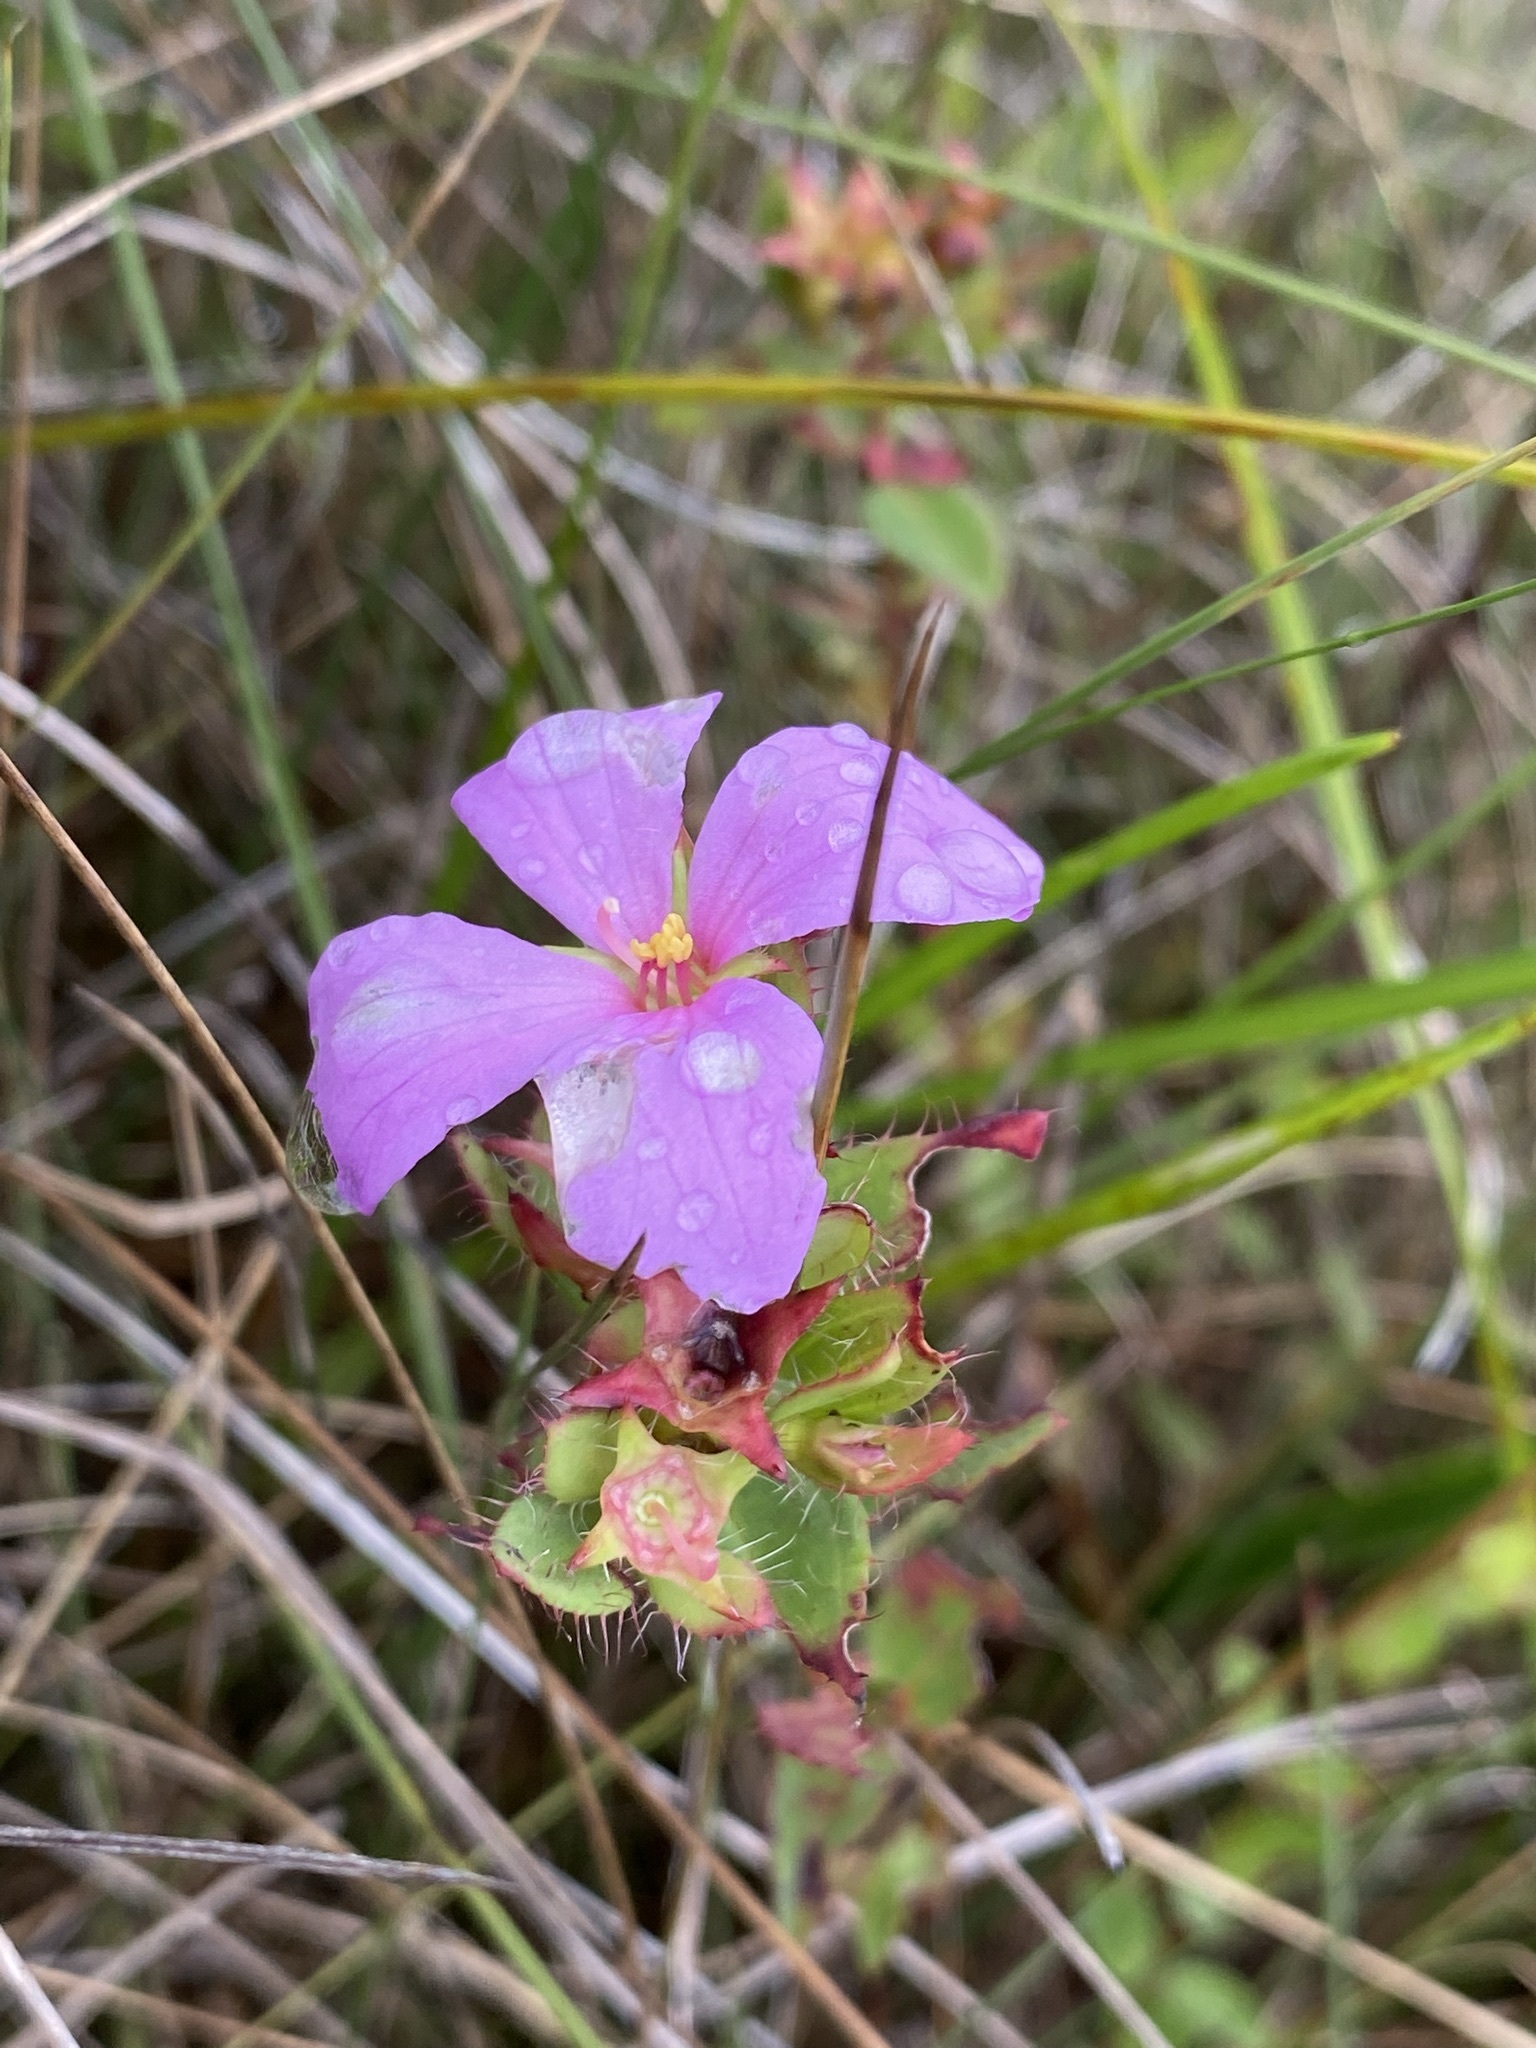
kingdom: Plantae
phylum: Tracheophyta
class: Magnoliopsida
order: Myrtales
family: Melastomataceae
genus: Rhexia
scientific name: Rhexia petiolata
